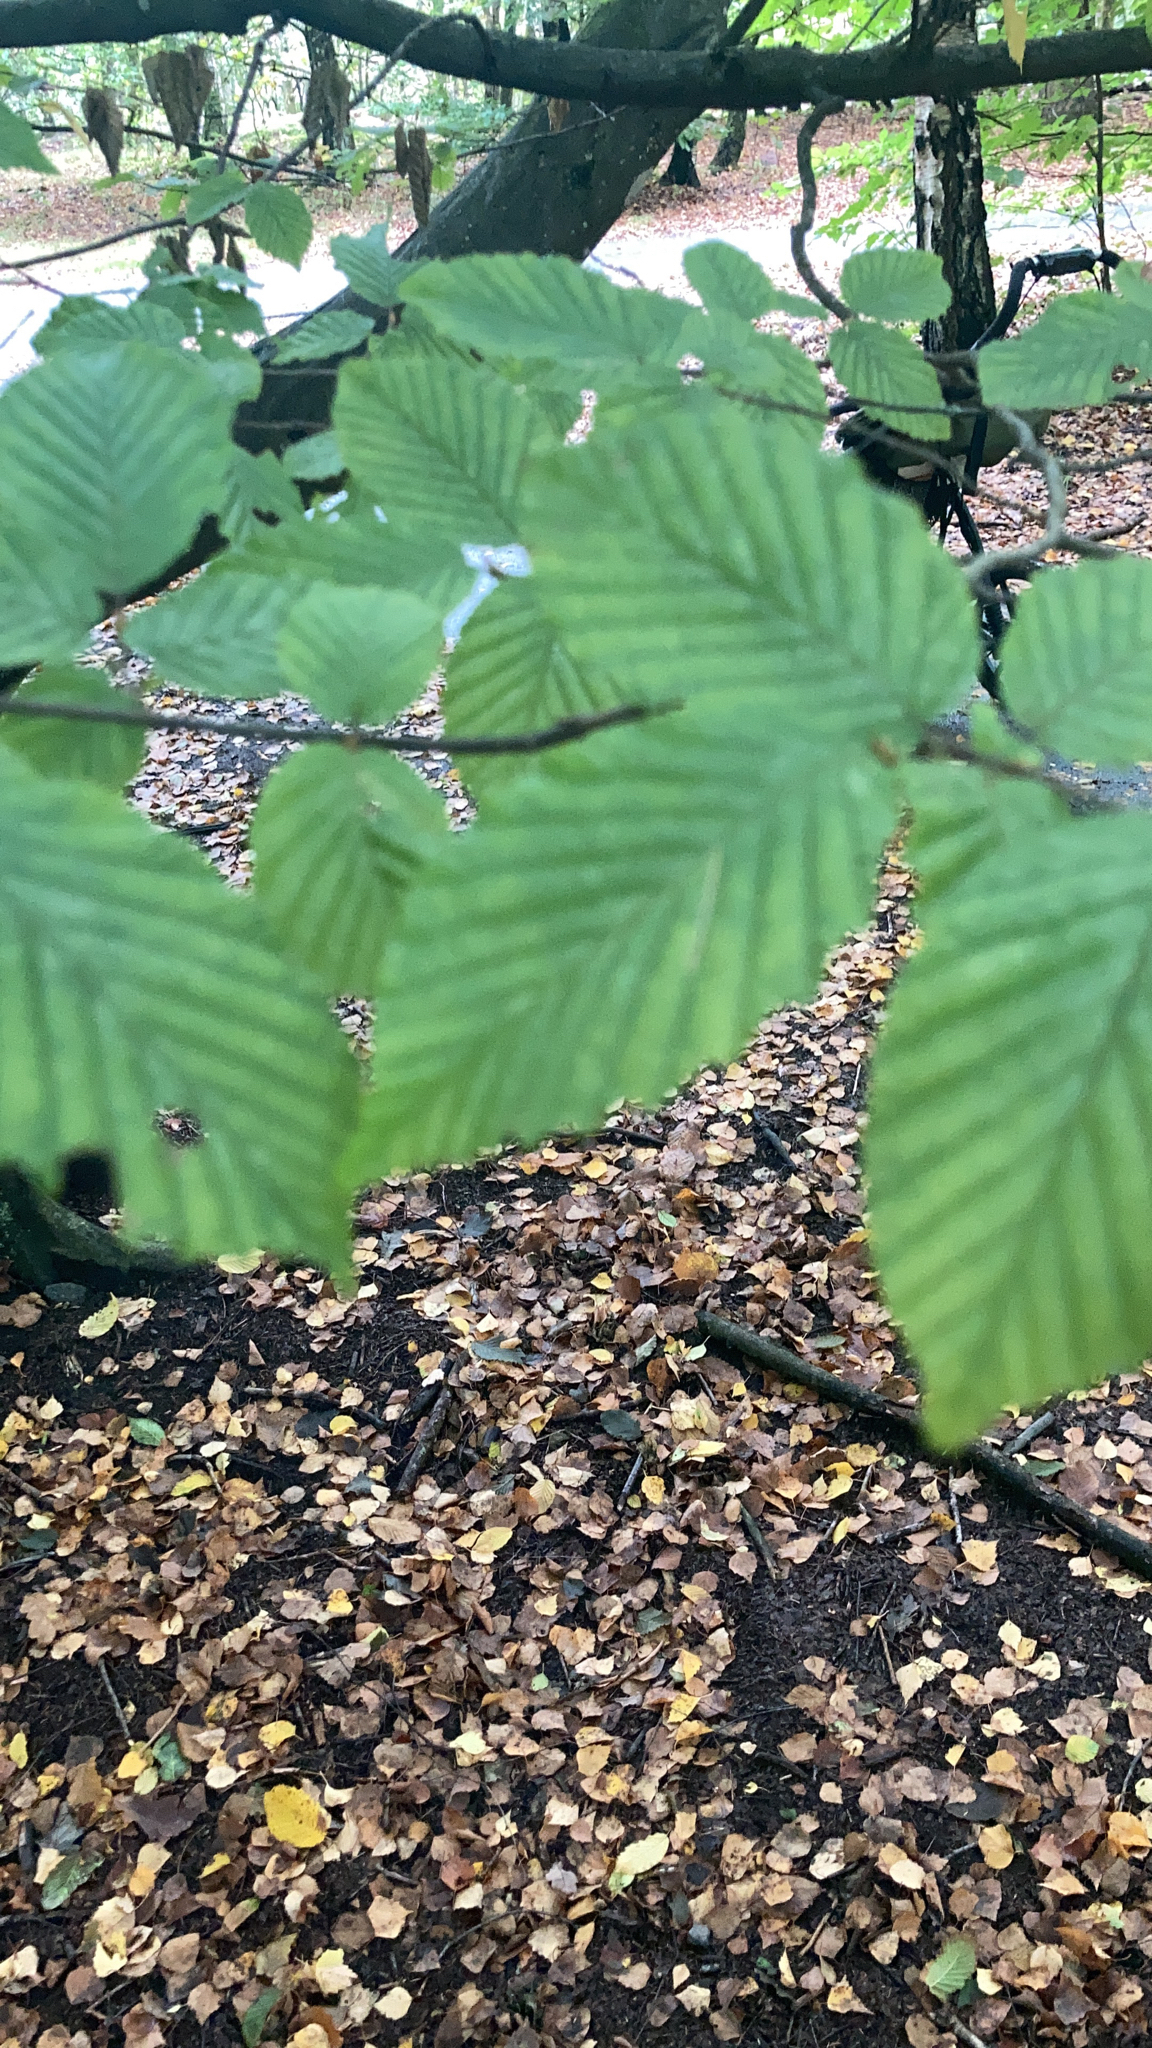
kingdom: Plantae
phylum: Tracheophyta
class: Magnoliopsida
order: Fagales
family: Betulaceae
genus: Carpinus
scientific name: Carpinus betulus
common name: Hornbeam
